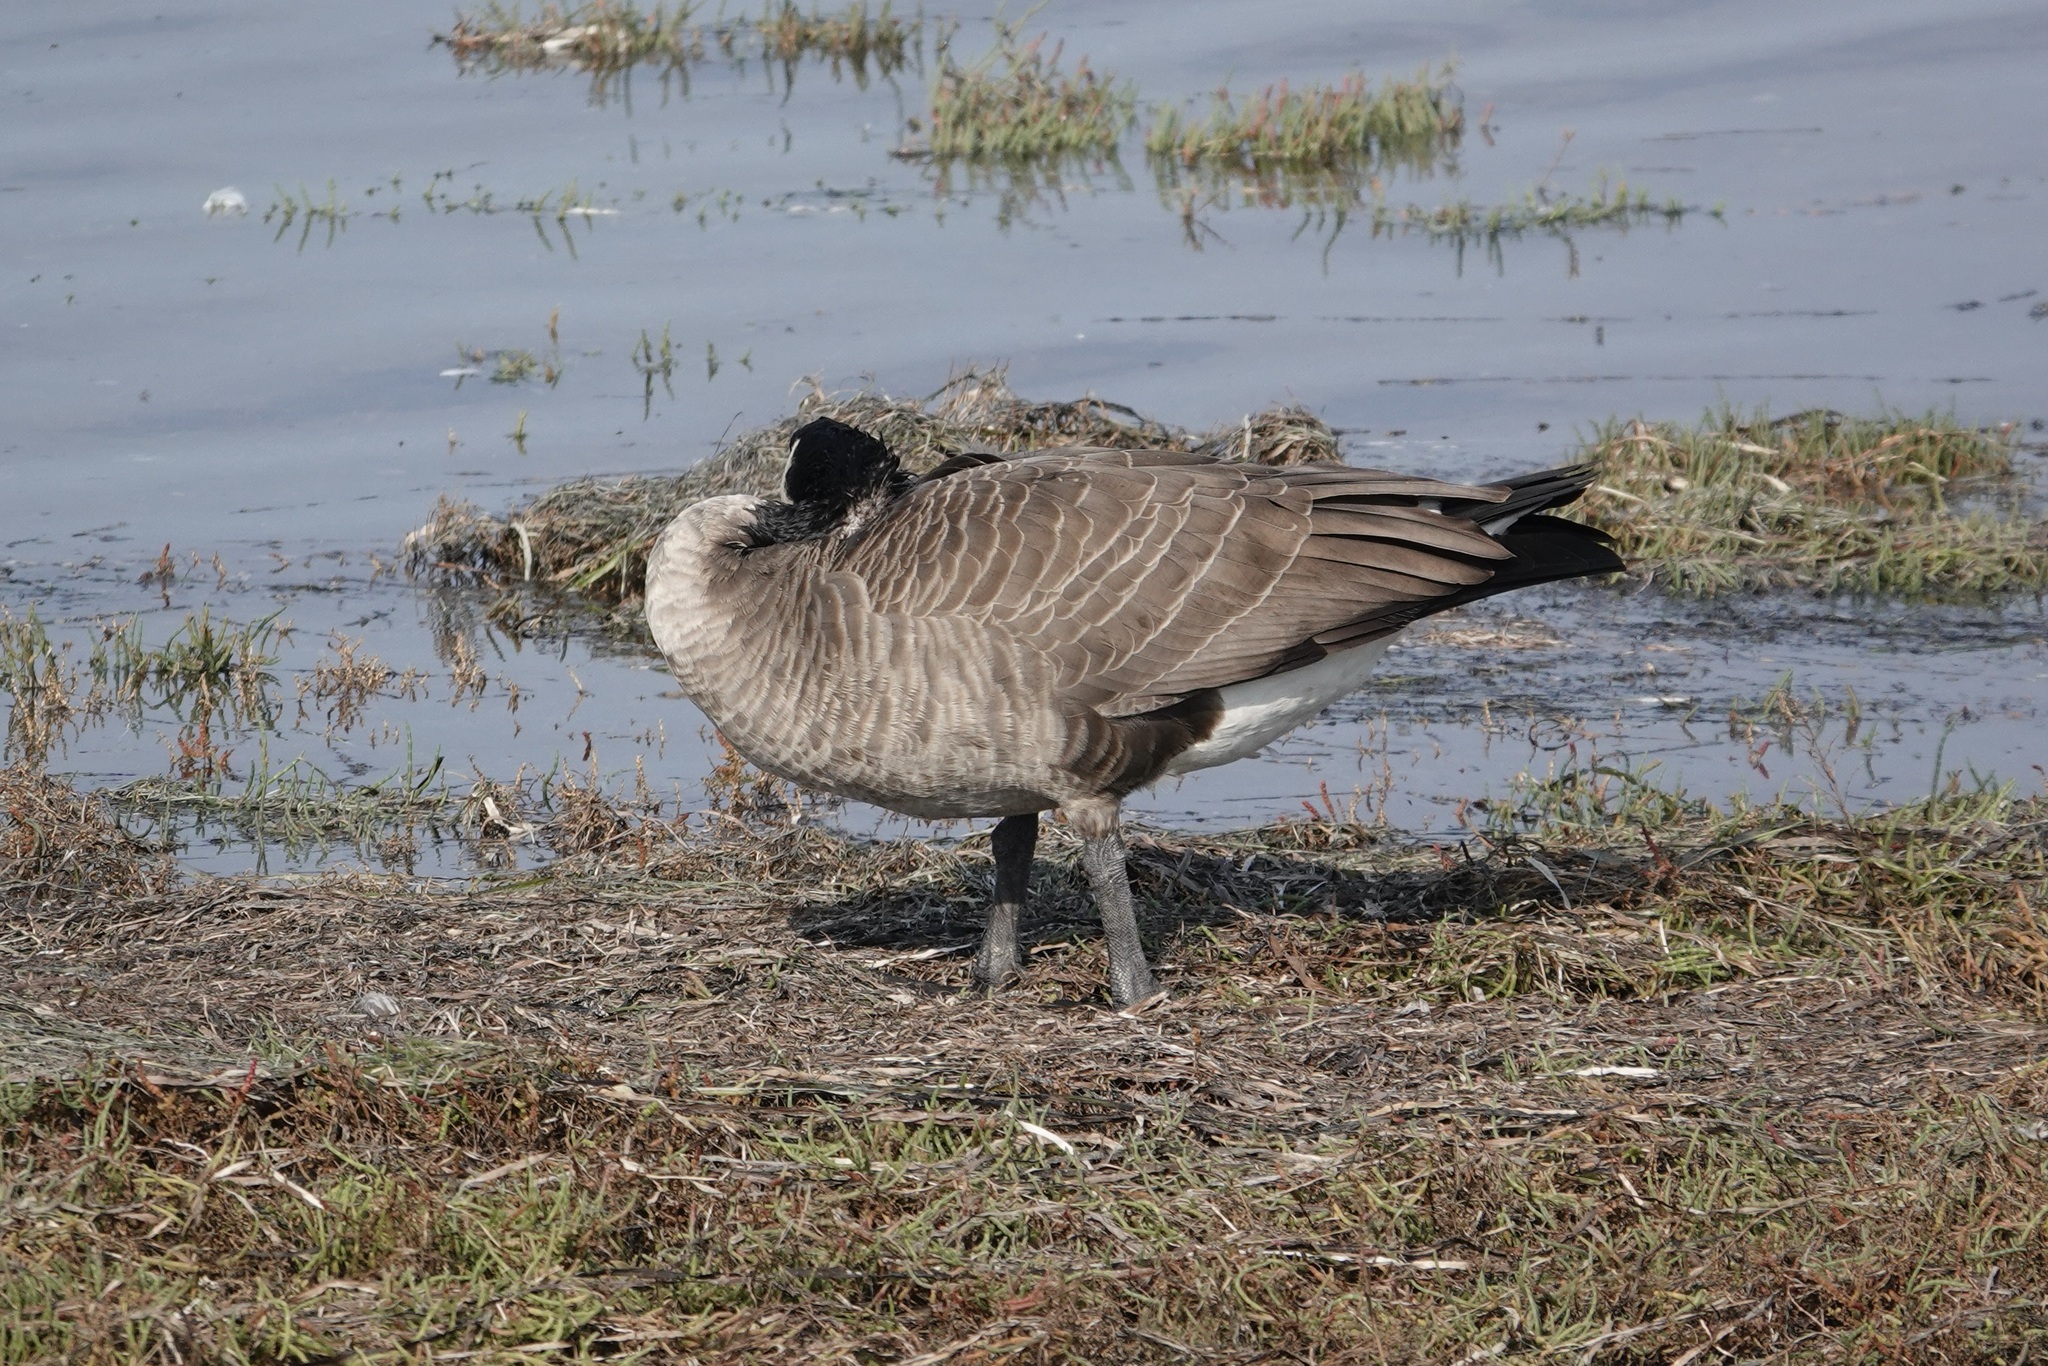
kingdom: Animalia
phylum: Chordata
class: Aves
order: Anseriformes
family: Anatidae
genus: Branta
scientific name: Branta canadensis
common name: Canada goose
